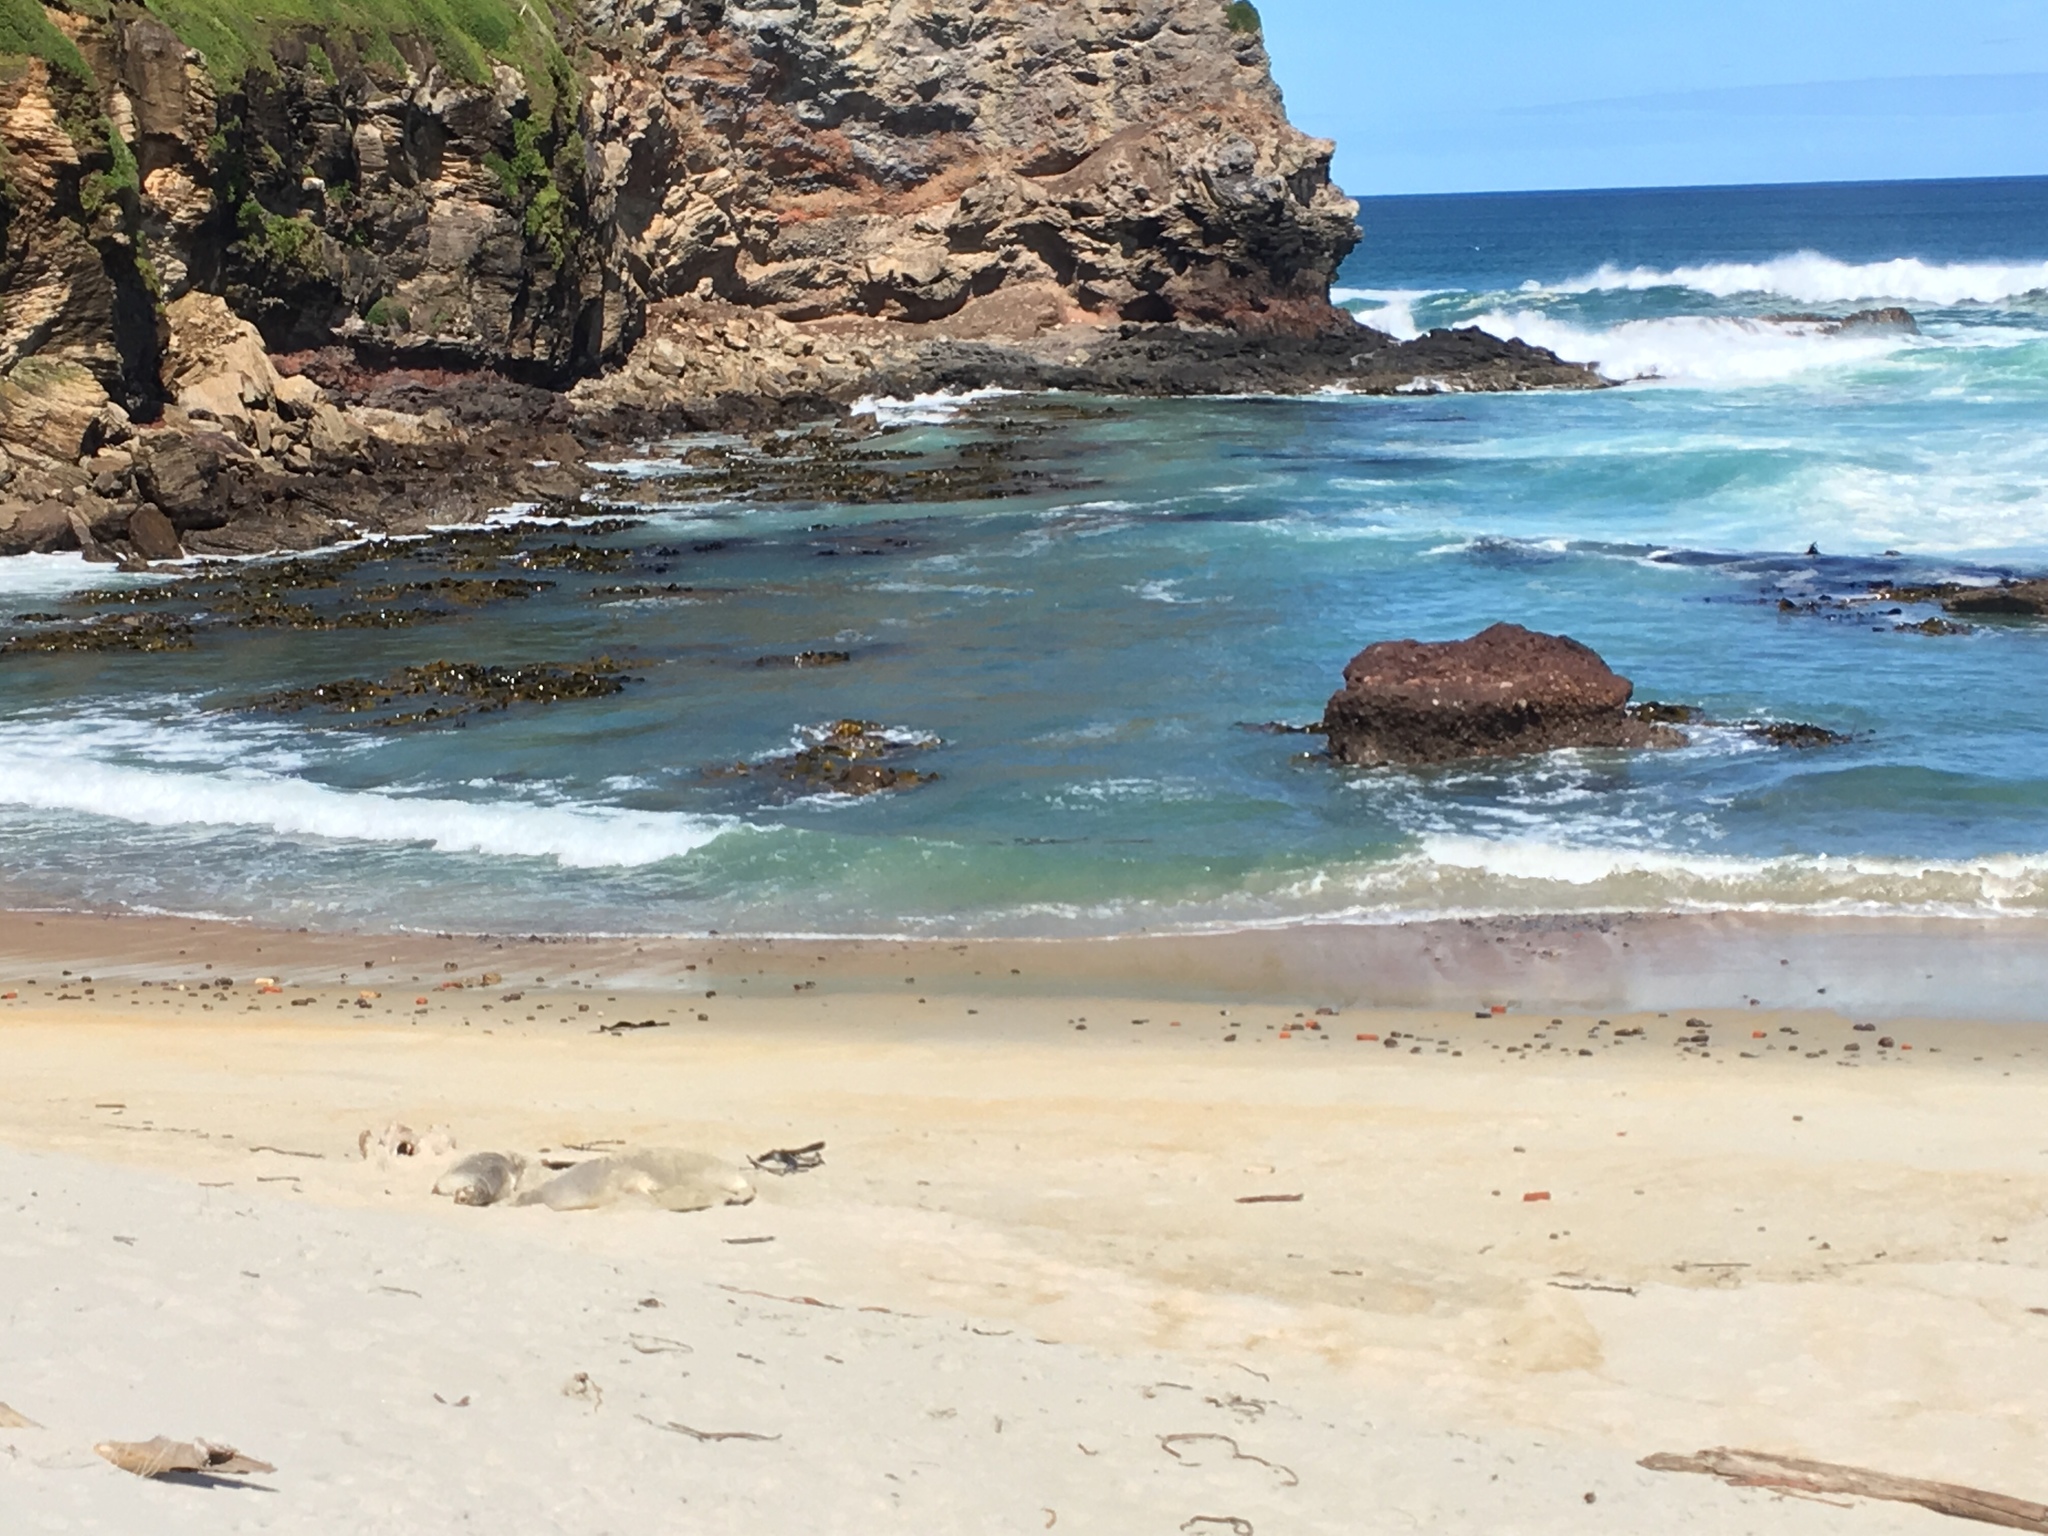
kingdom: Animalia
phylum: Chordata
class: Mammalia
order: Carnivora
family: Otariidae
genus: Phocarctos
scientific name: Phocarctos hookeri
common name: New zealand sea lion
